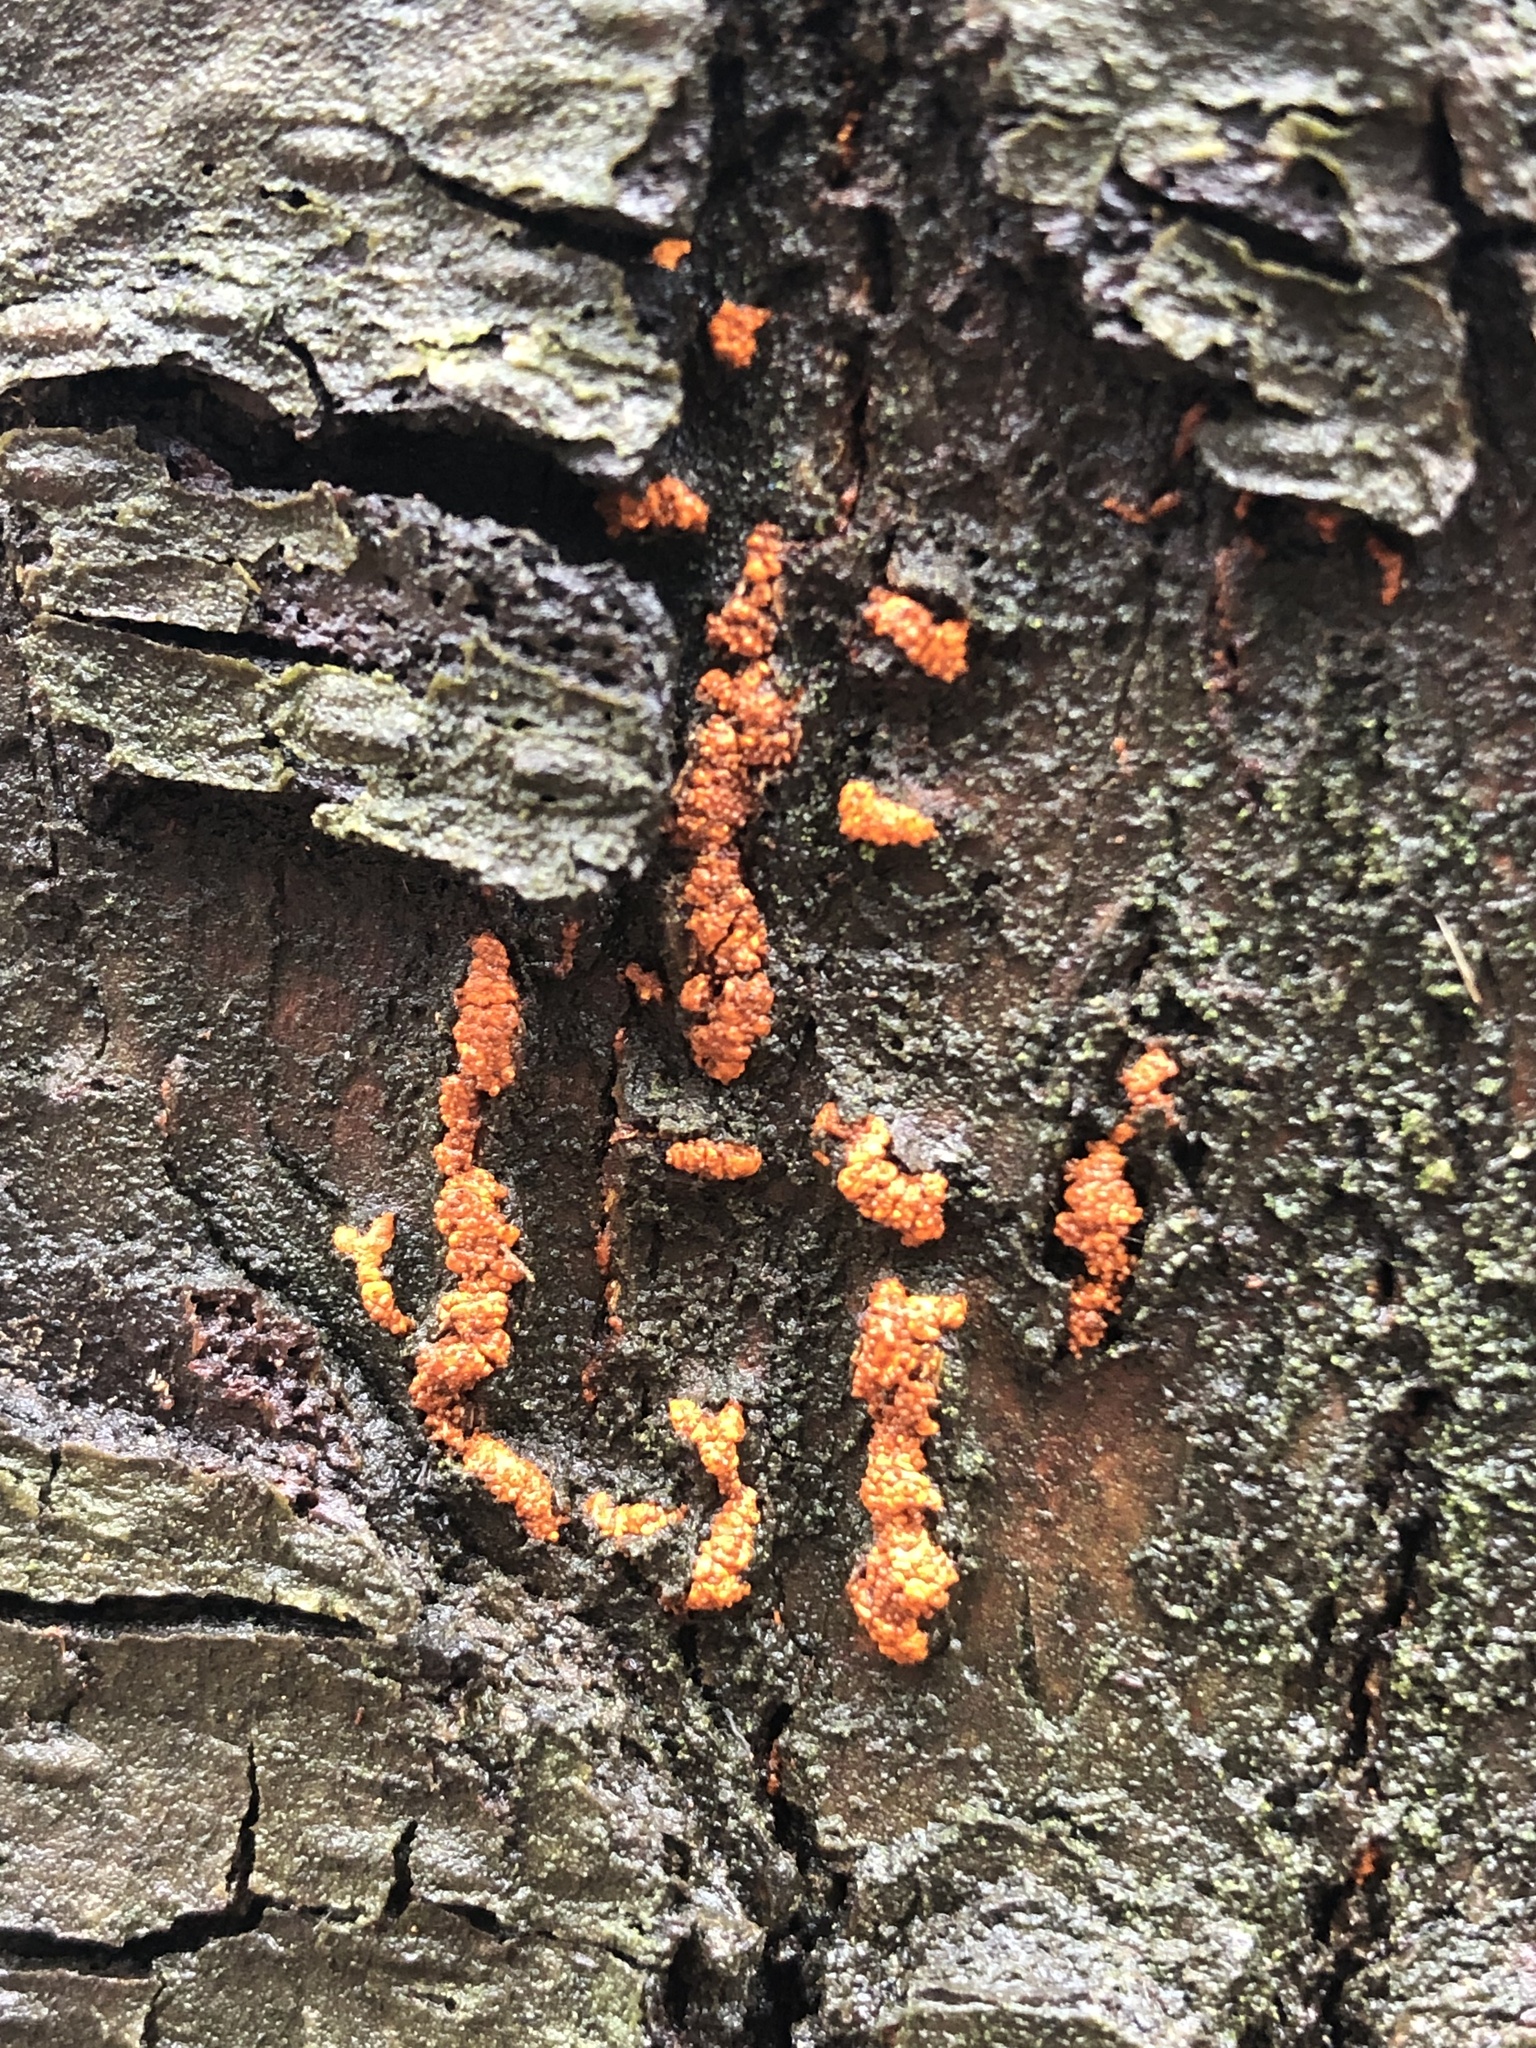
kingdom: Fungi
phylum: Ascomycota
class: Sordariomycetes
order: Diaporthales
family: Cryphonectriaceae
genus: Cryphonectria
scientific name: Cryphonectria parasitica
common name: Chestnut blight
